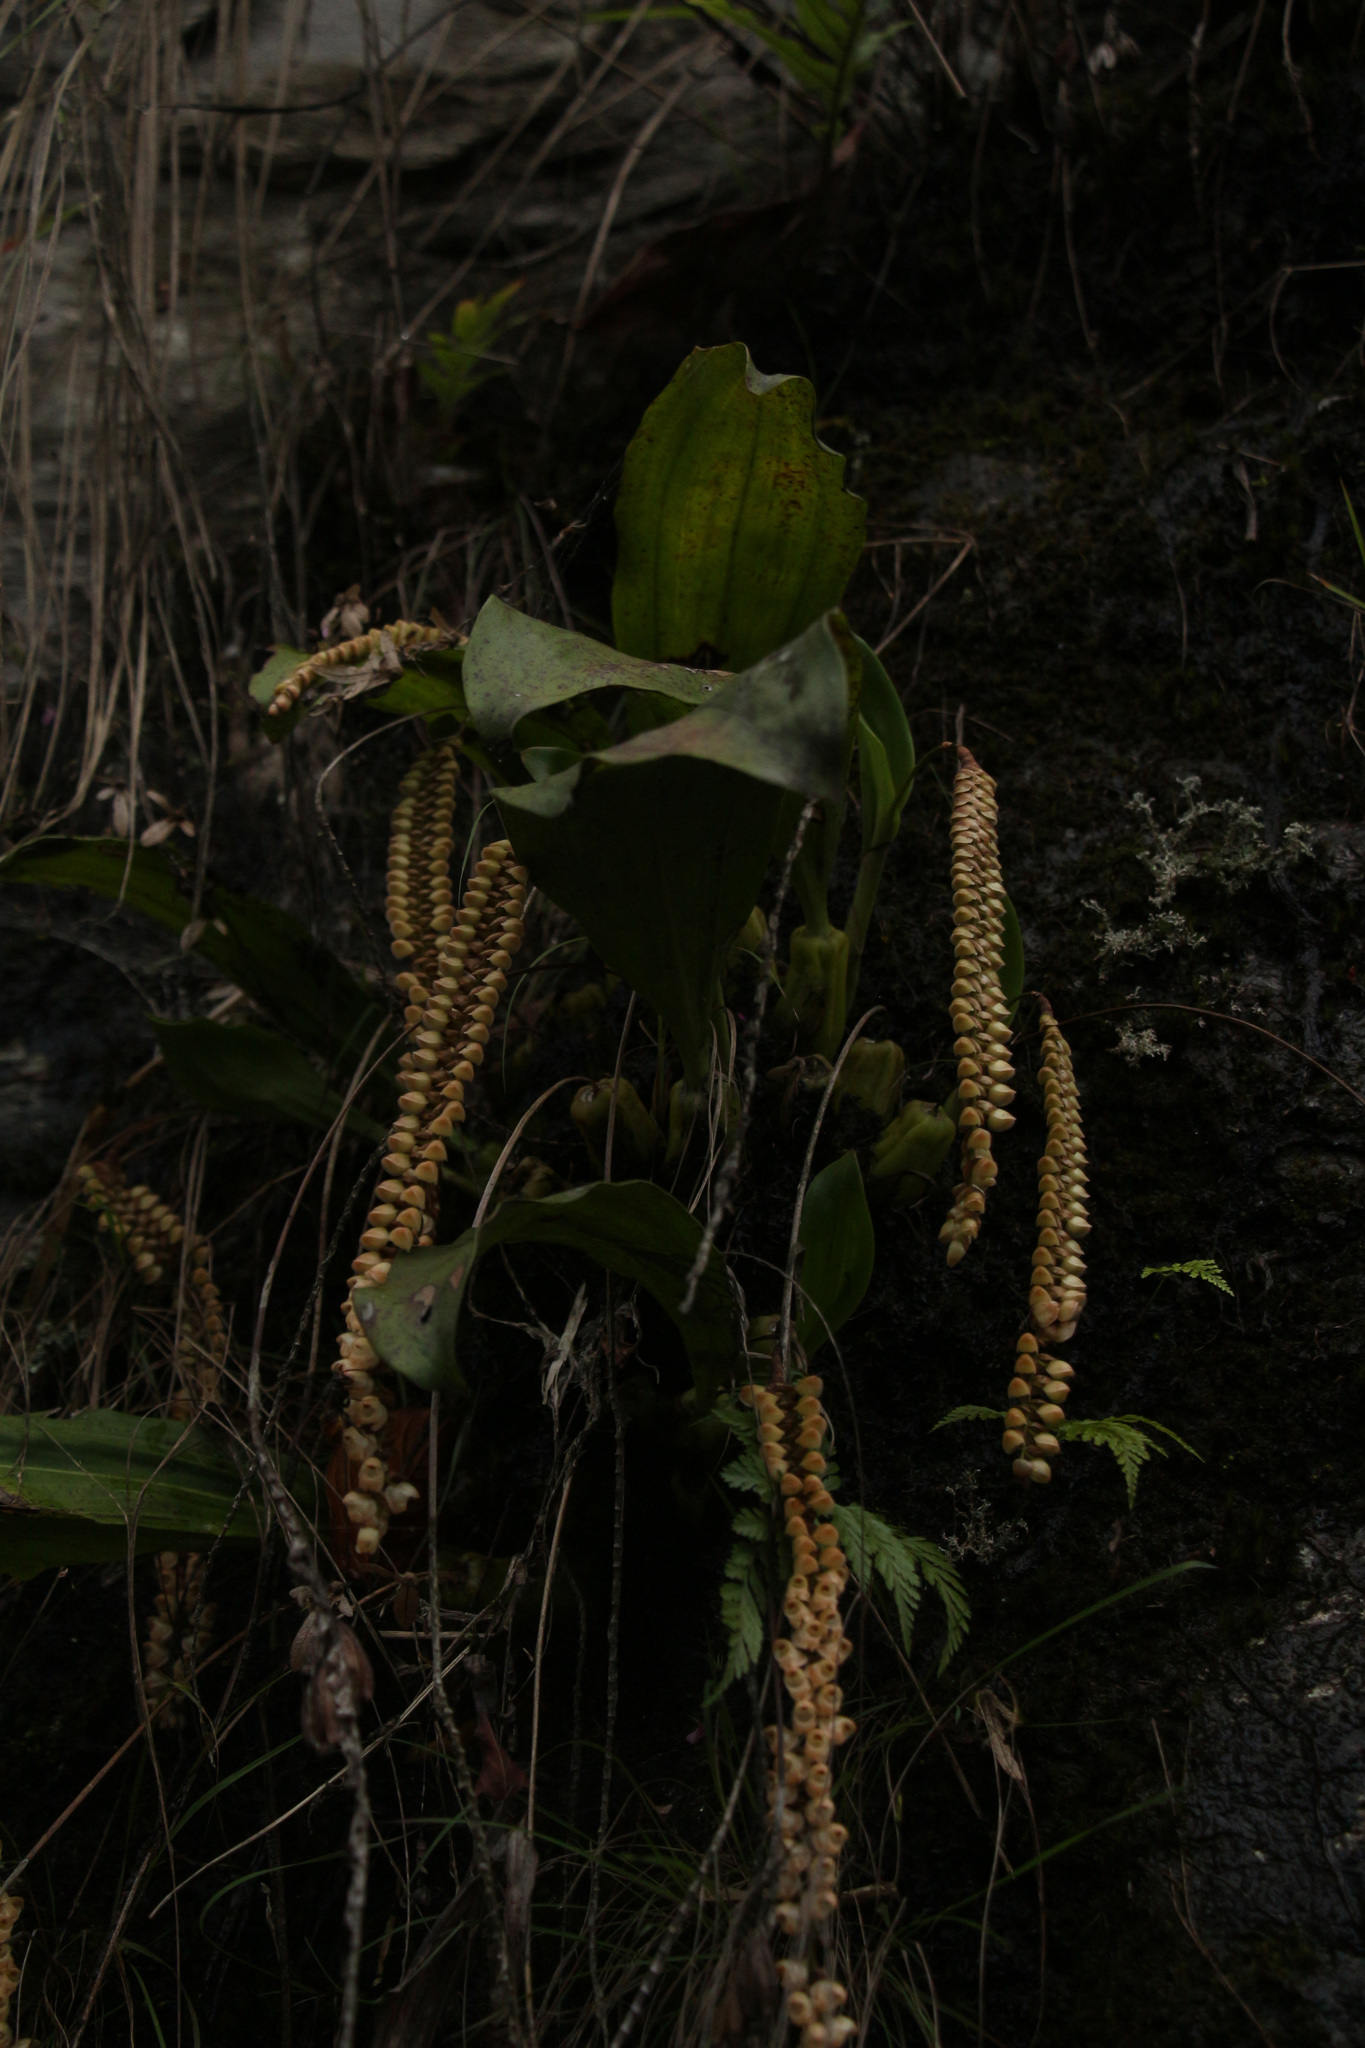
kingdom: Plantae
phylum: Tracheophyta
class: Liliopsida
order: Asparagales
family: Orchidaceae
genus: Pholidota
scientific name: Pholidota imbricata
